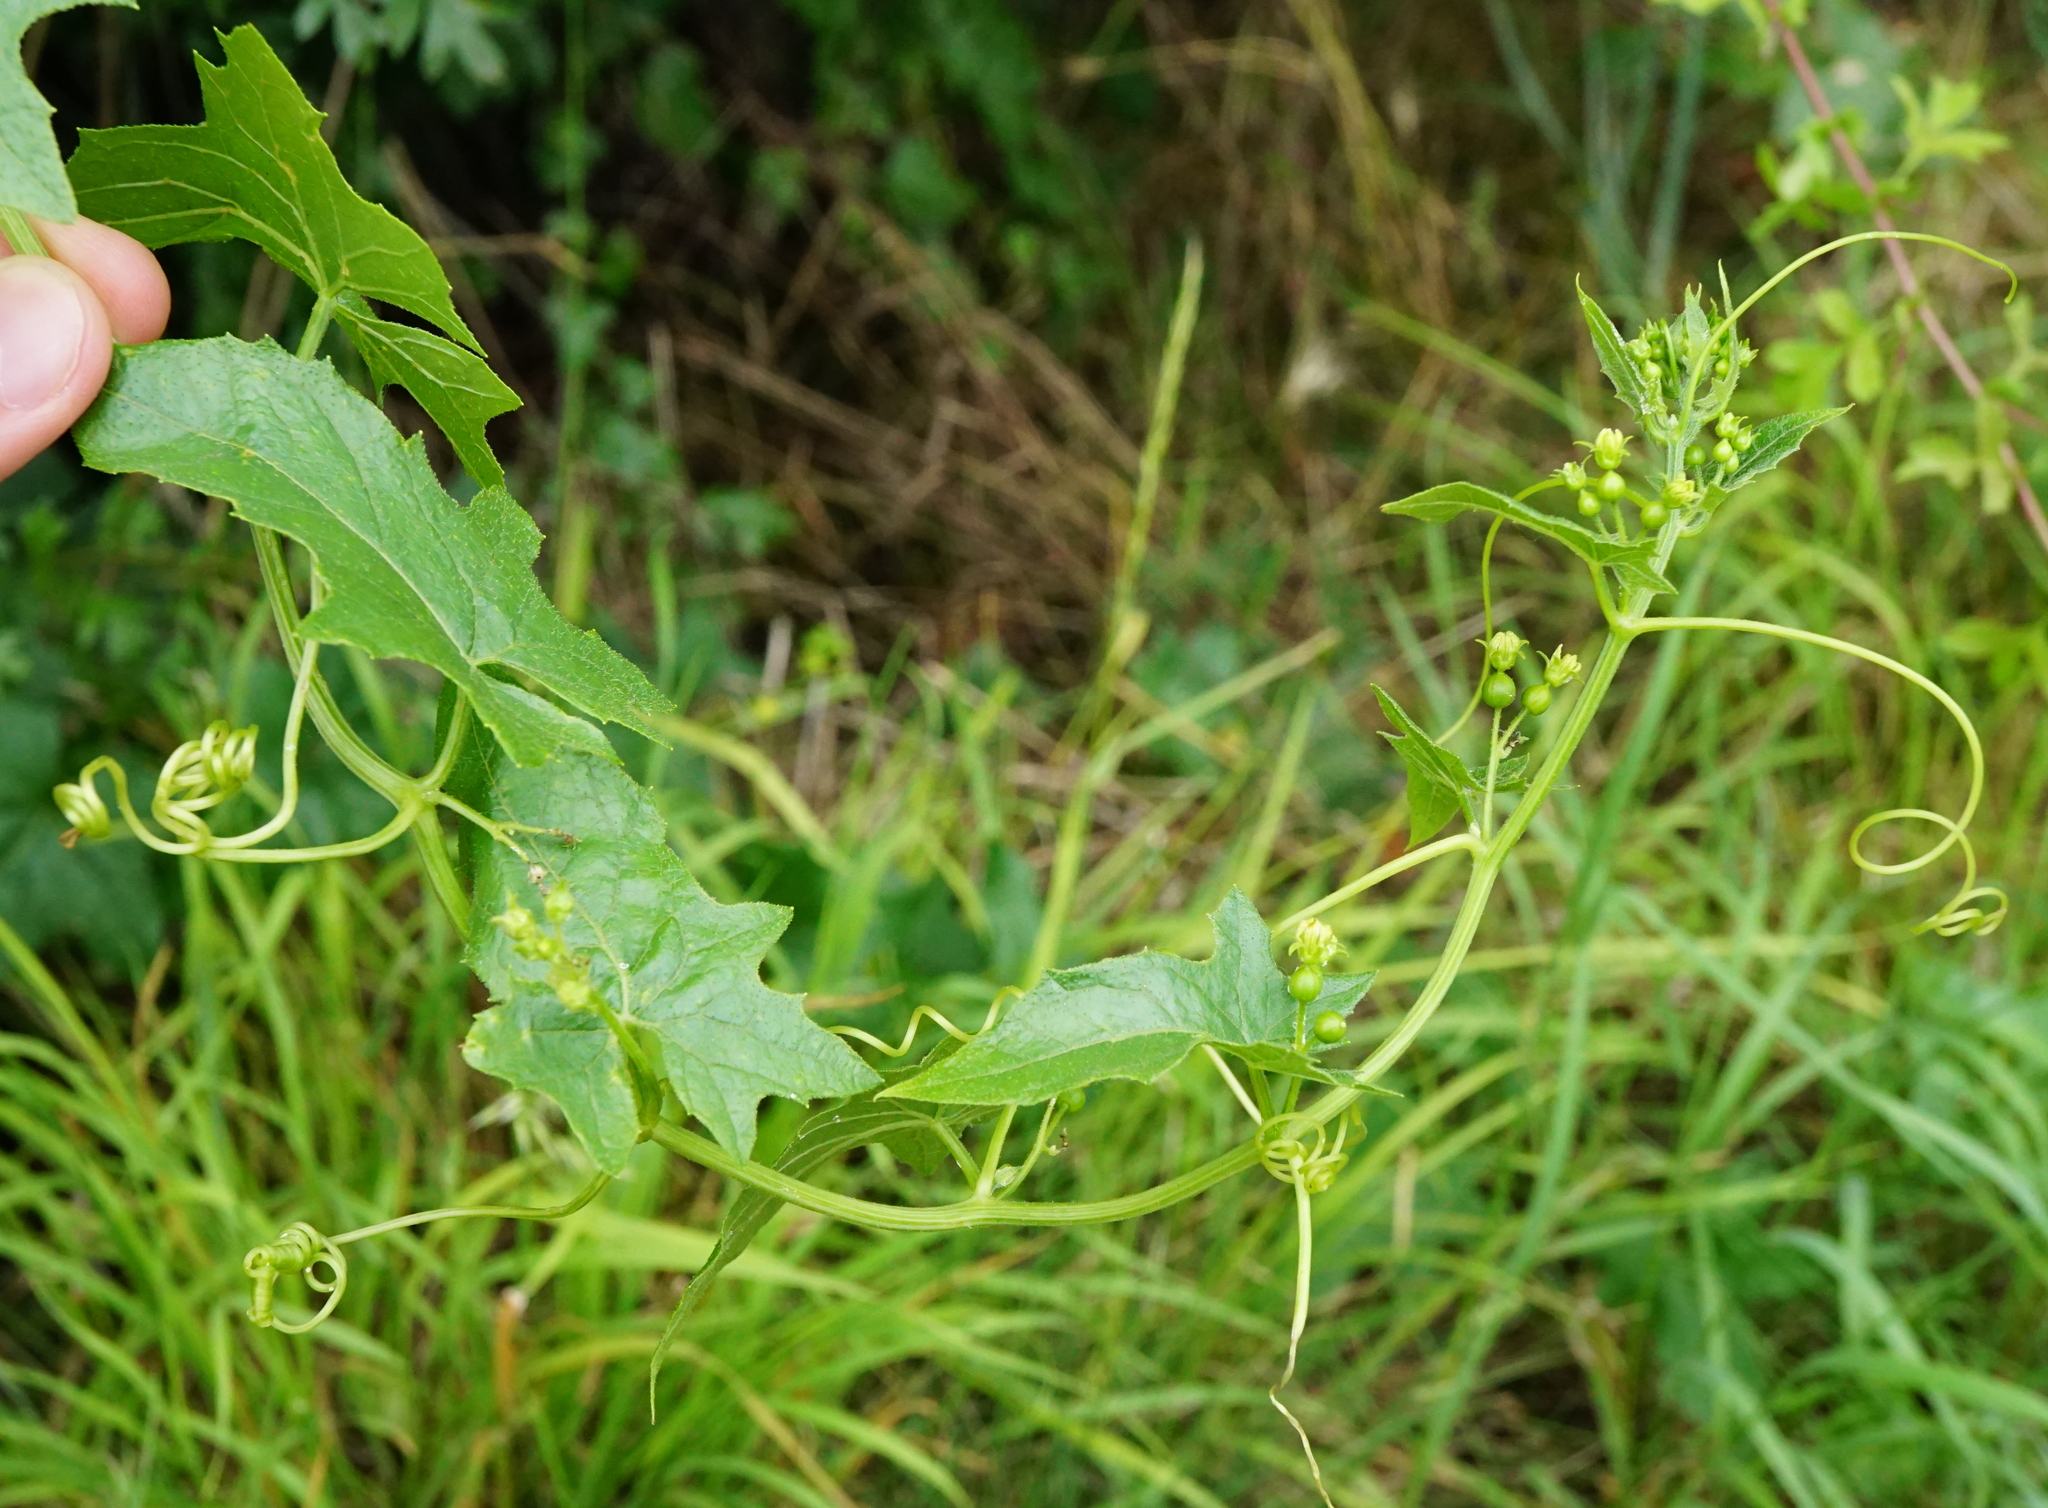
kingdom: Plantae
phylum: Tracheophyta
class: Magnoliopsida
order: Cucurbitales
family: Cucurbitaceae
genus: Bryonia
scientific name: Bryonia alba
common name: White bryony
